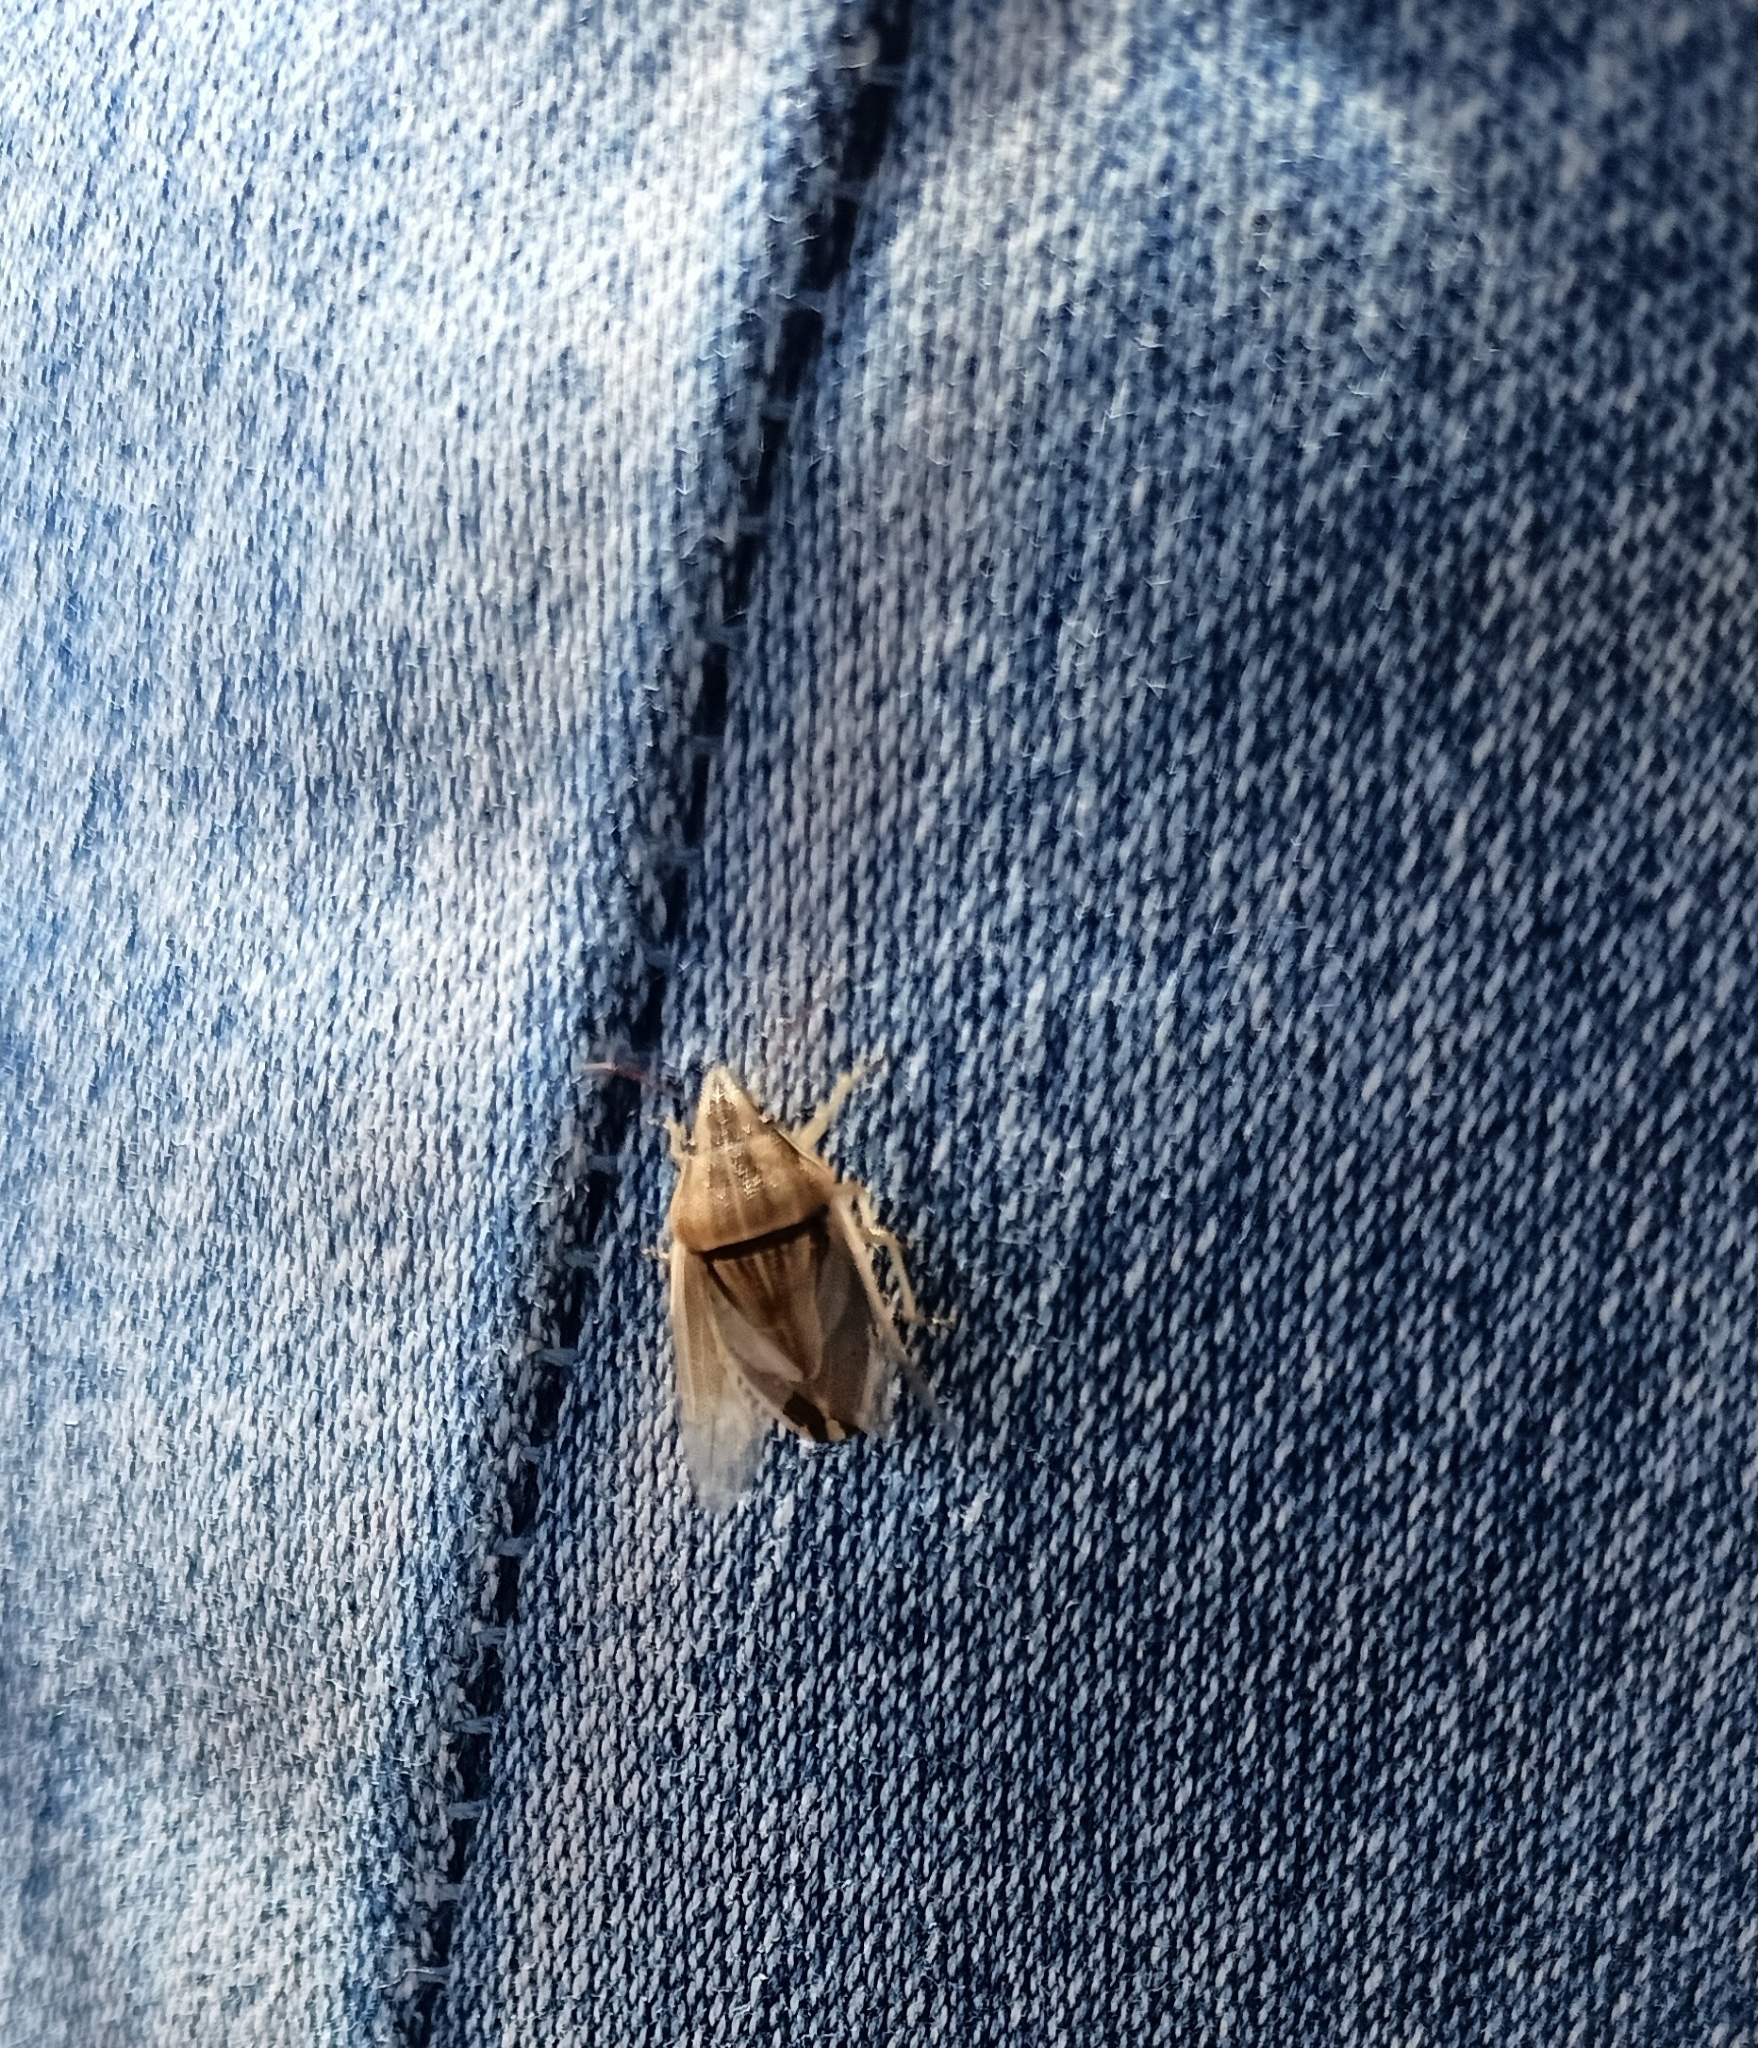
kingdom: Animalia
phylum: Arthropoda
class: Insecta
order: Hemiptera
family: Pentatomidae
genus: Aelia
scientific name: Aelia acuminata
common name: Bishop's mitre
